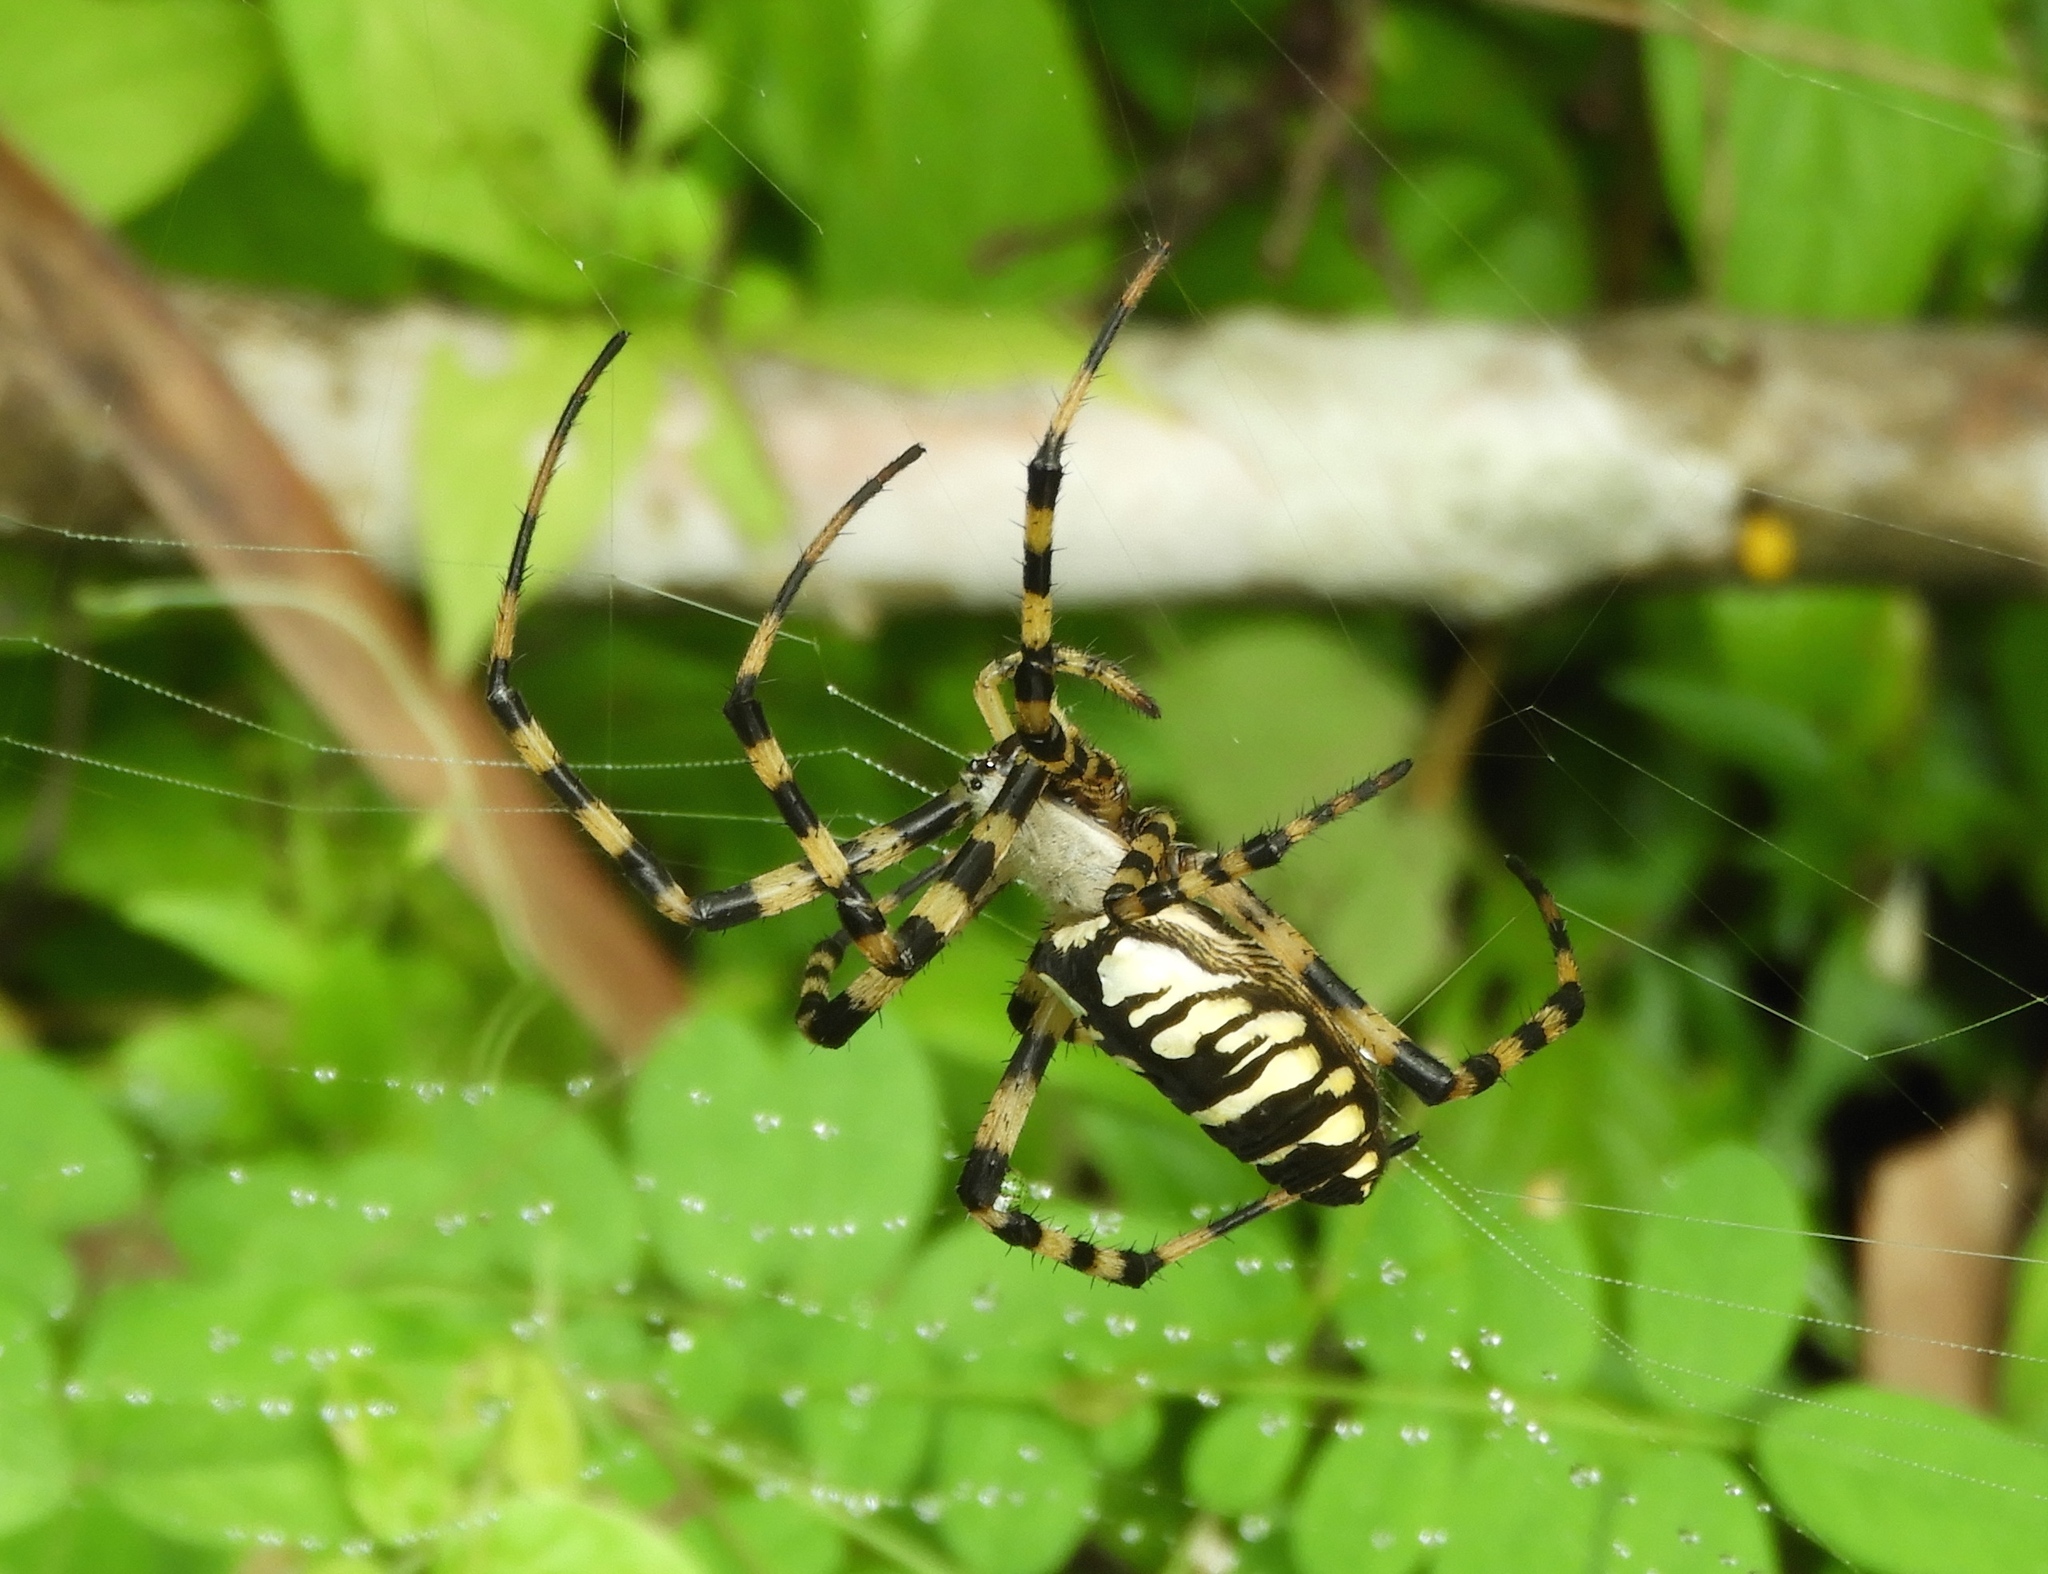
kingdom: Animalia
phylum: Arthropoda
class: Arachnida
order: Araneae
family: Araneidae
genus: Argiope
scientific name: Argiope aurantia
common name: Orb weavers
